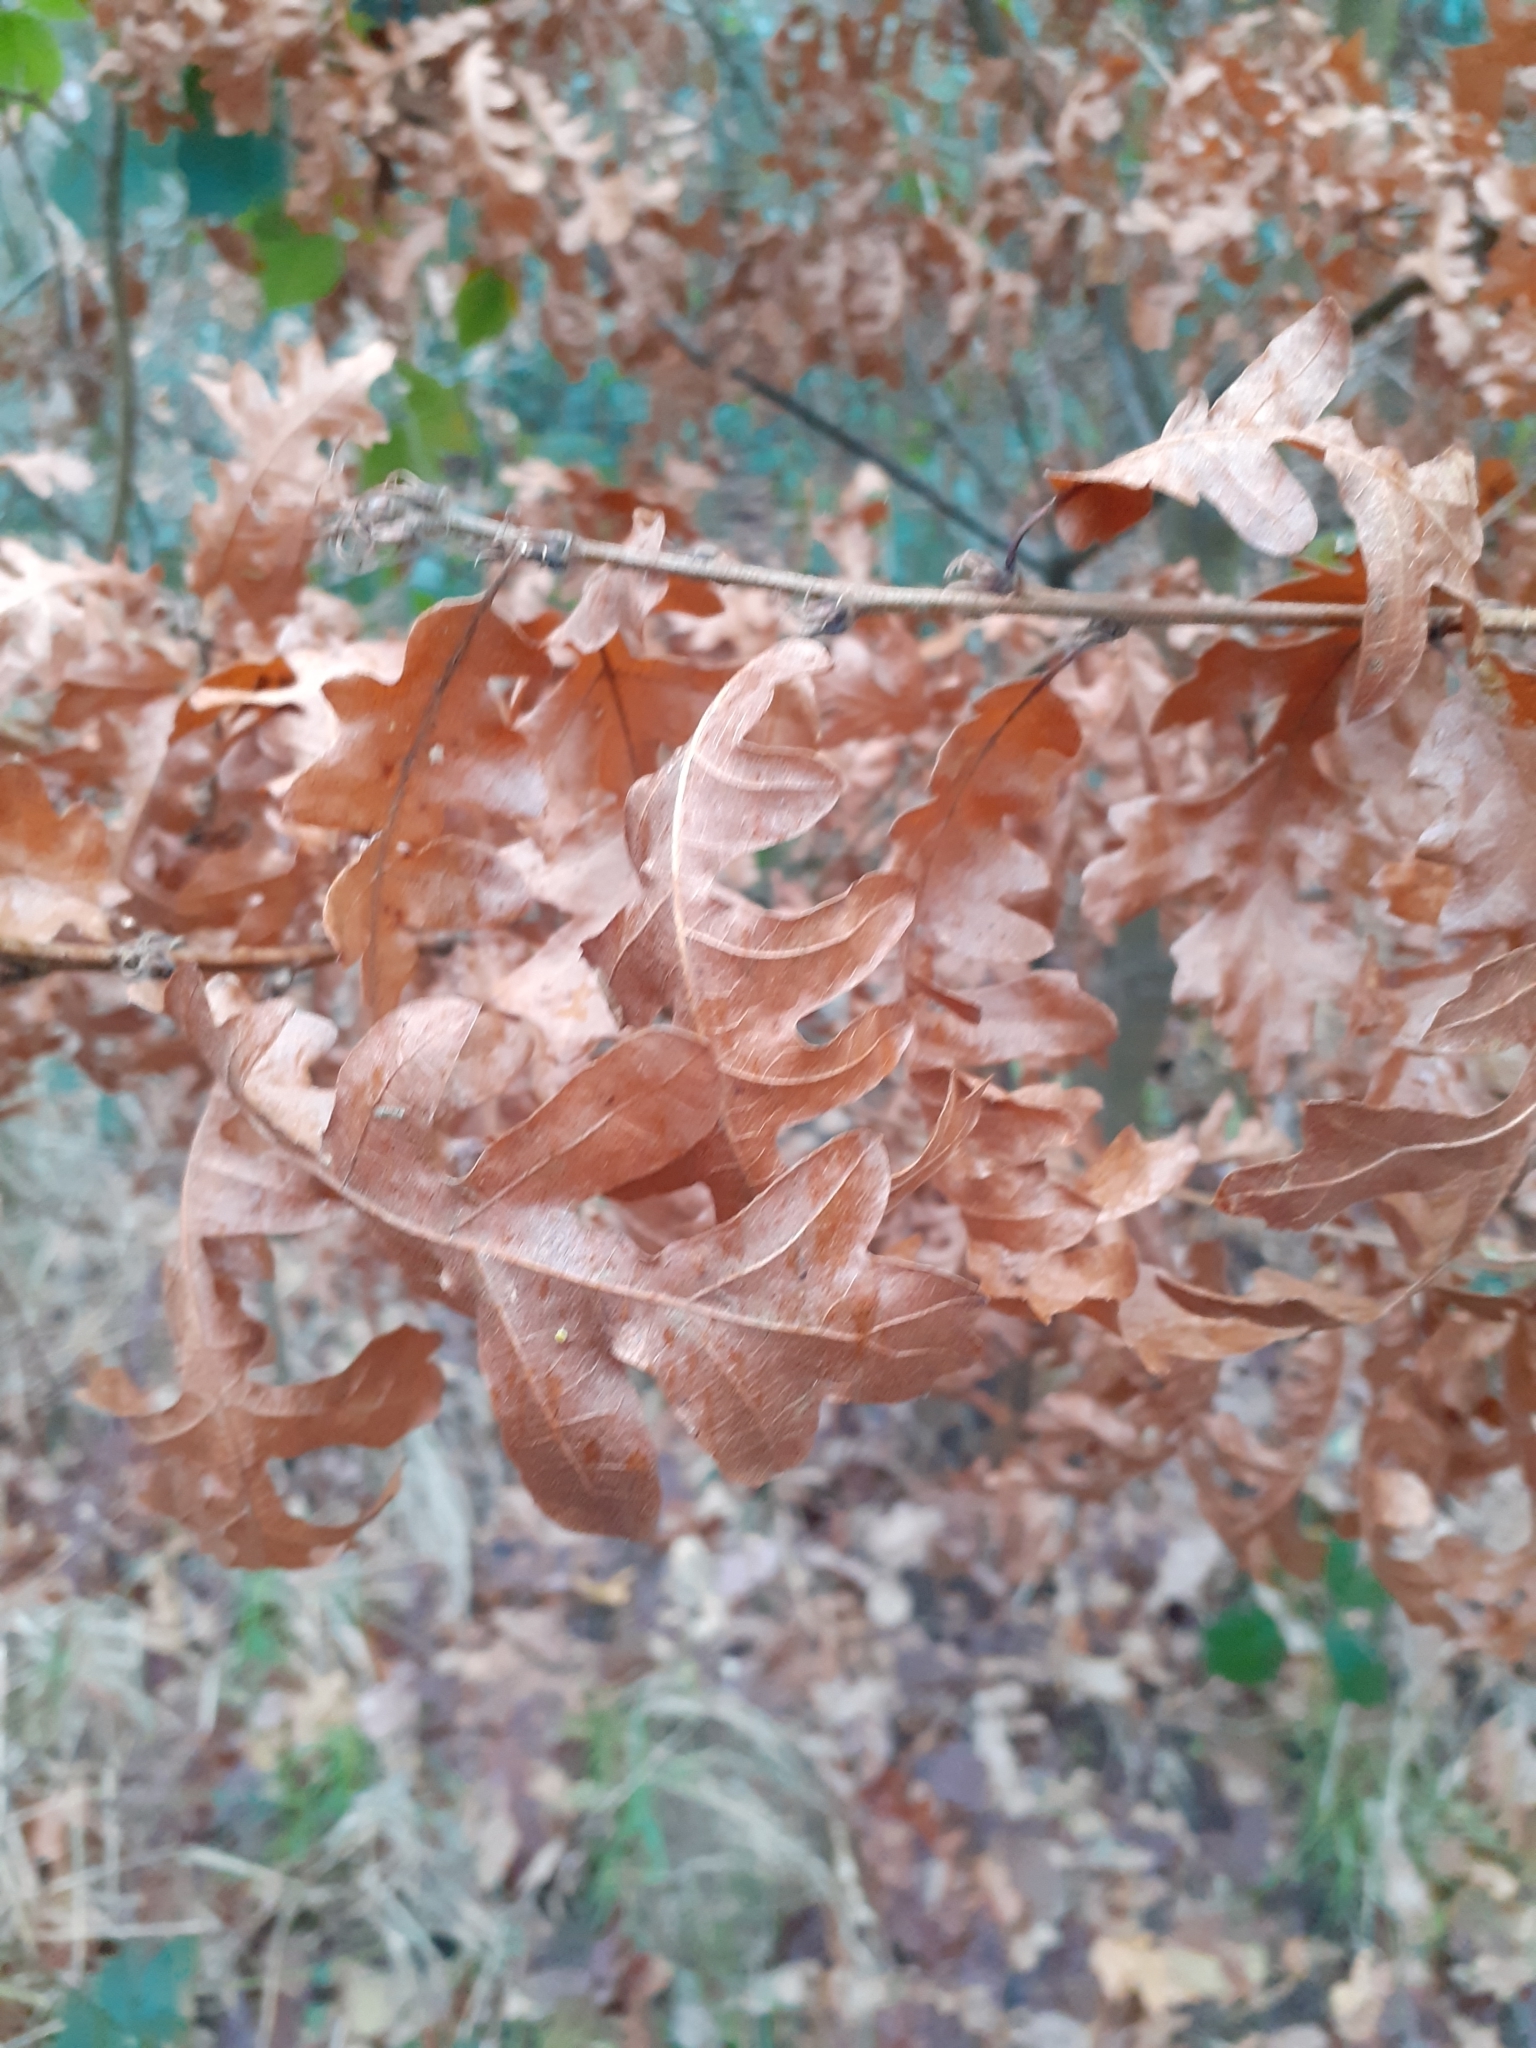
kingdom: Plantae
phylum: Tracheophyta
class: Magnoliopsida
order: Fagales
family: Fagaceae
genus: Quercus
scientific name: Quercus cerris
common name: Turkey oak
